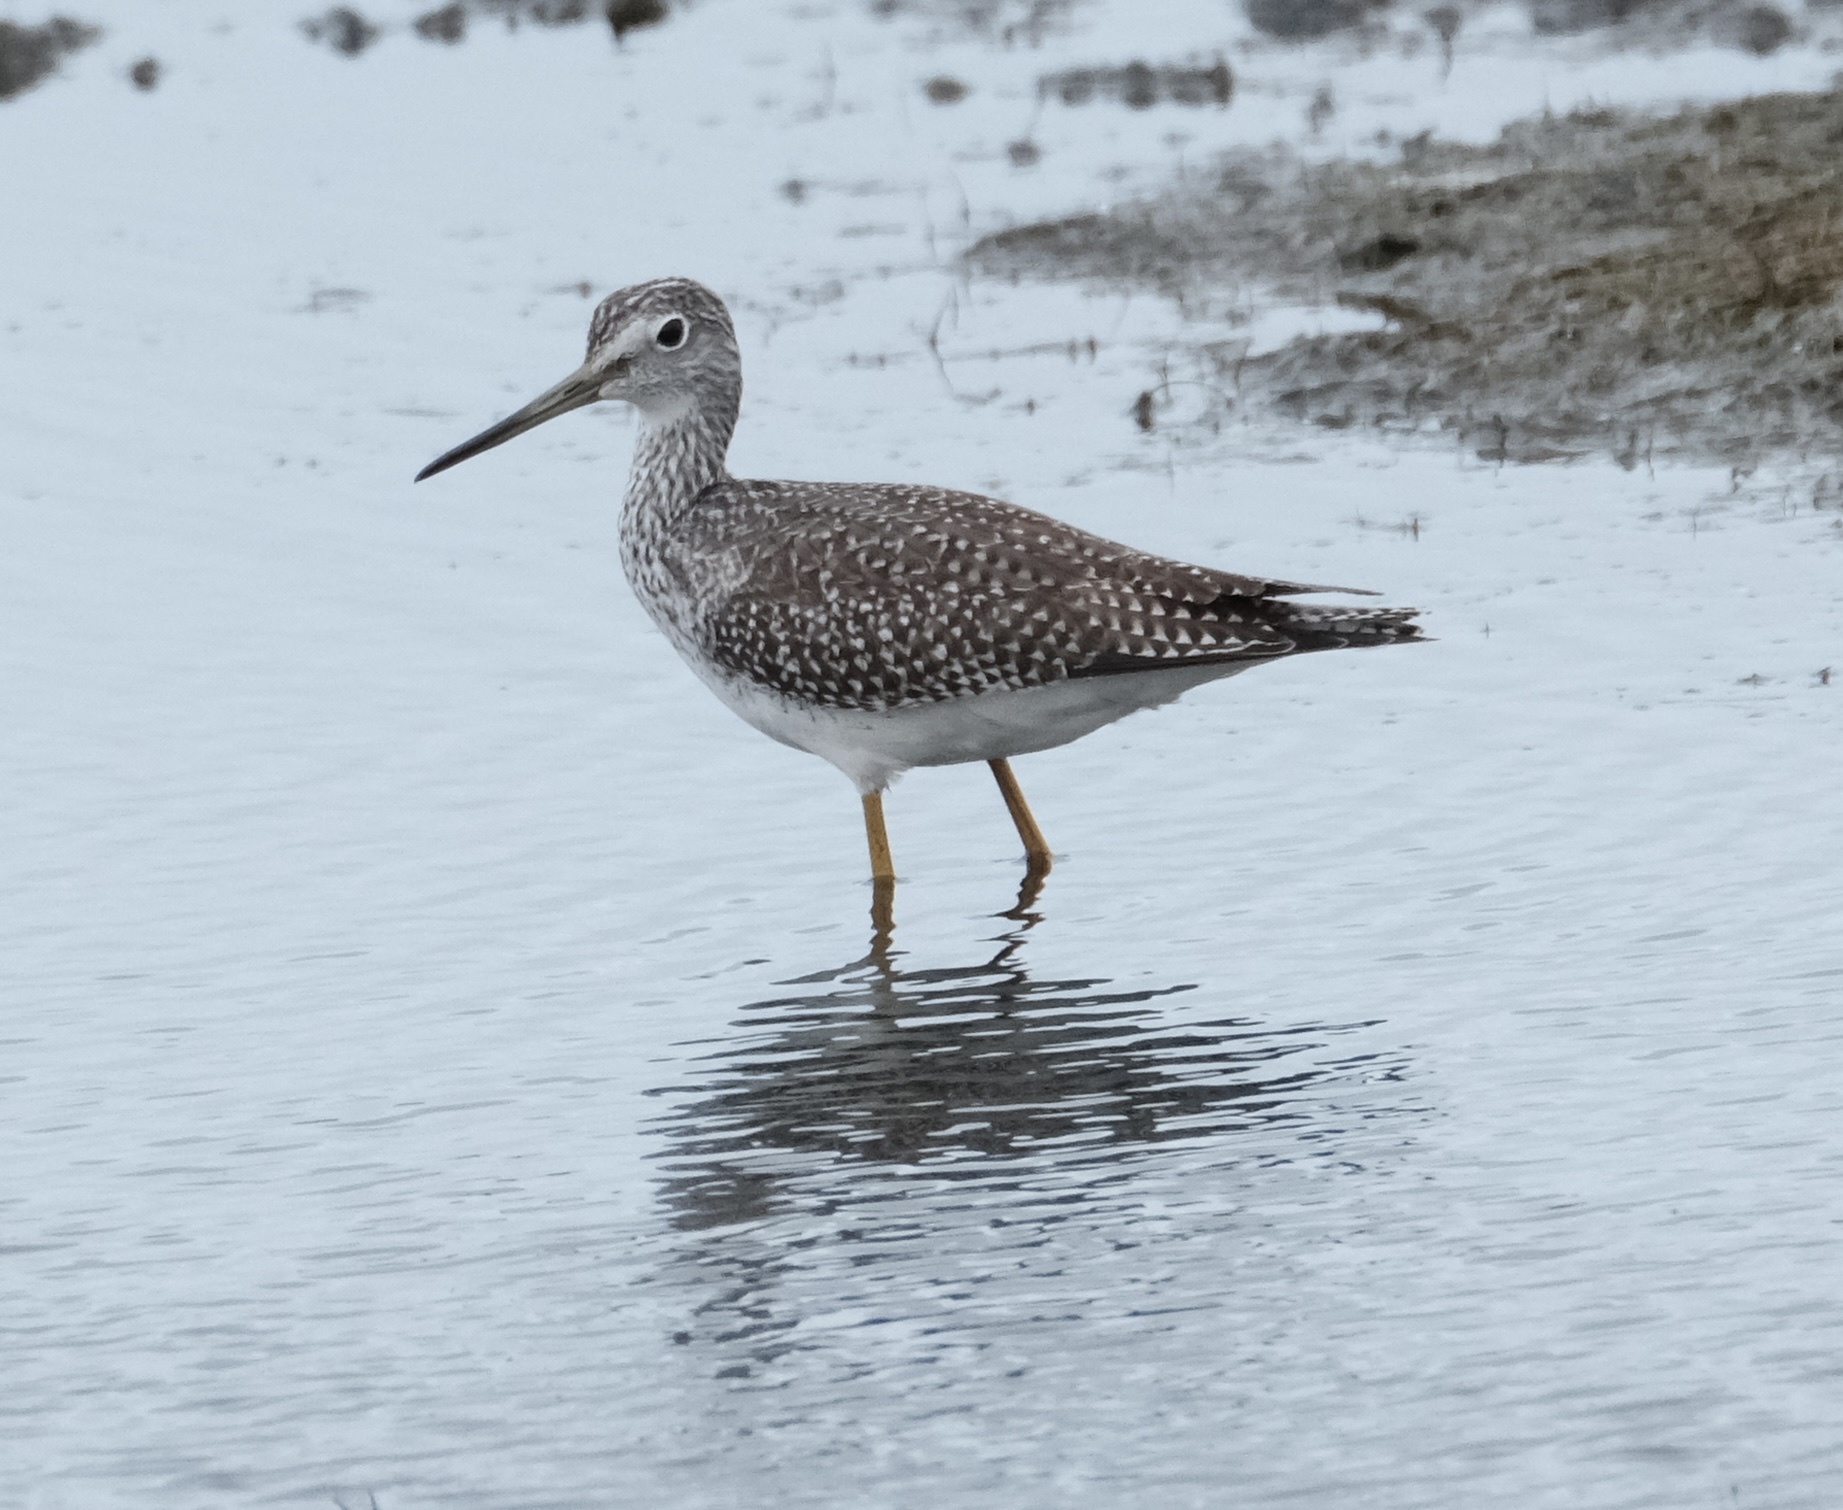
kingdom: Animalia
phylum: Chordata
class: Aves
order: Charadriiformes
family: Scolopacidae
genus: Tringa
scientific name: Tringa melanoleuca
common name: Greater yellowlegs
